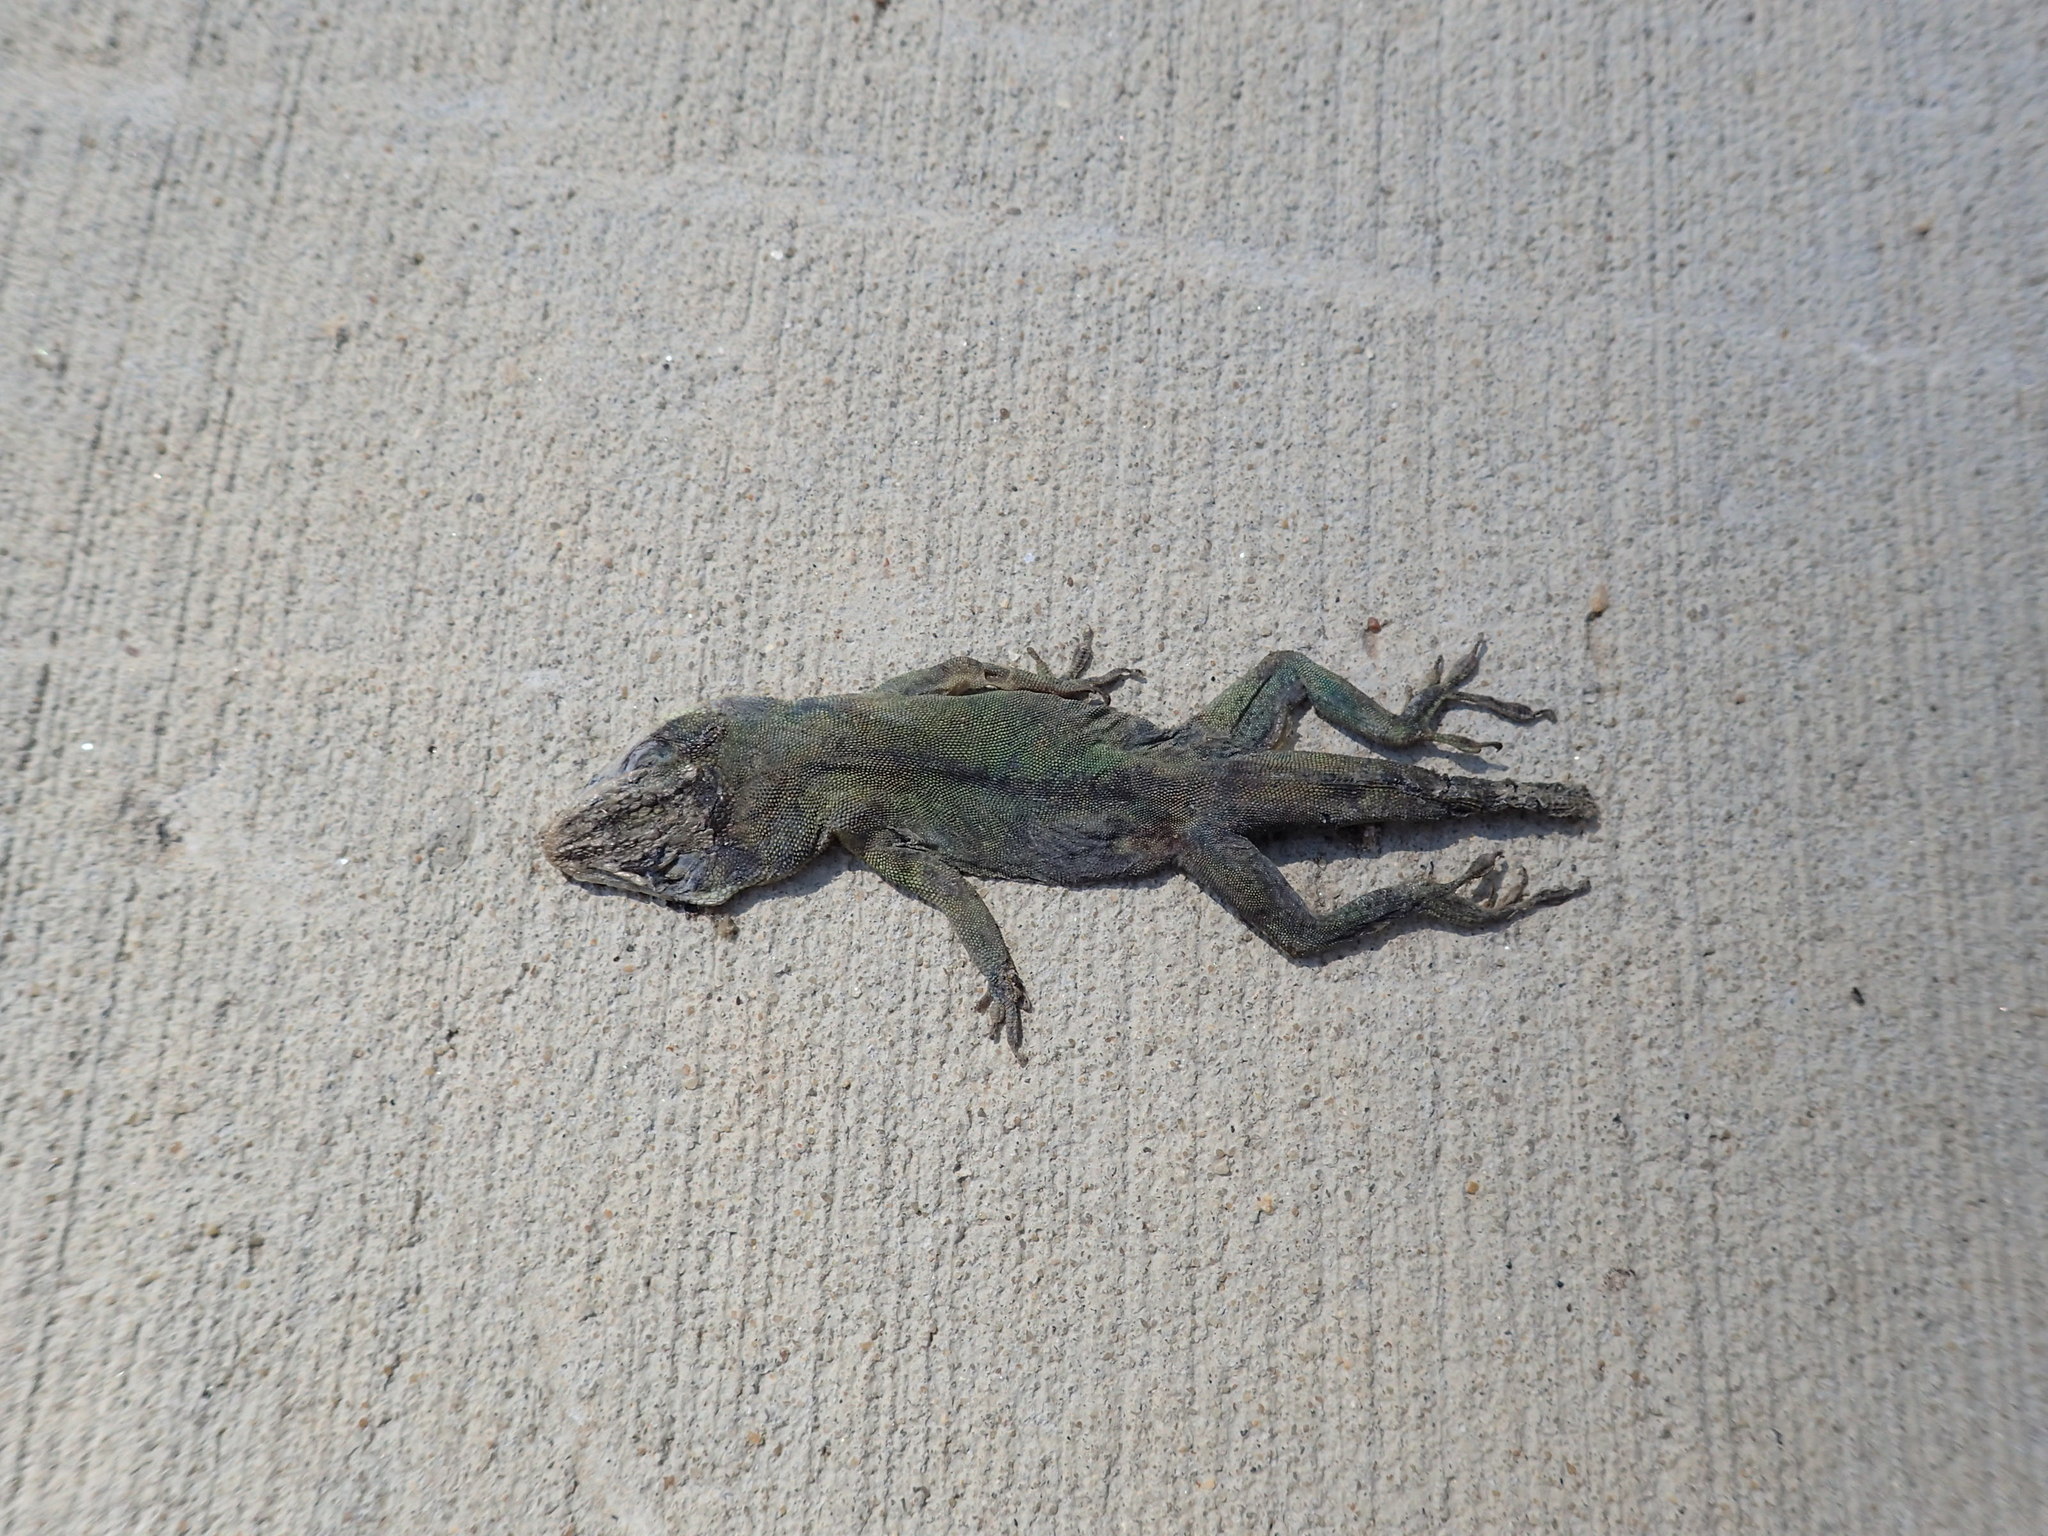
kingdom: Animalia
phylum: Chordata
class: Squamata
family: Dactyloidae
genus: Anolis
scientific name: Anolis carolinensis
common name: Green anole
